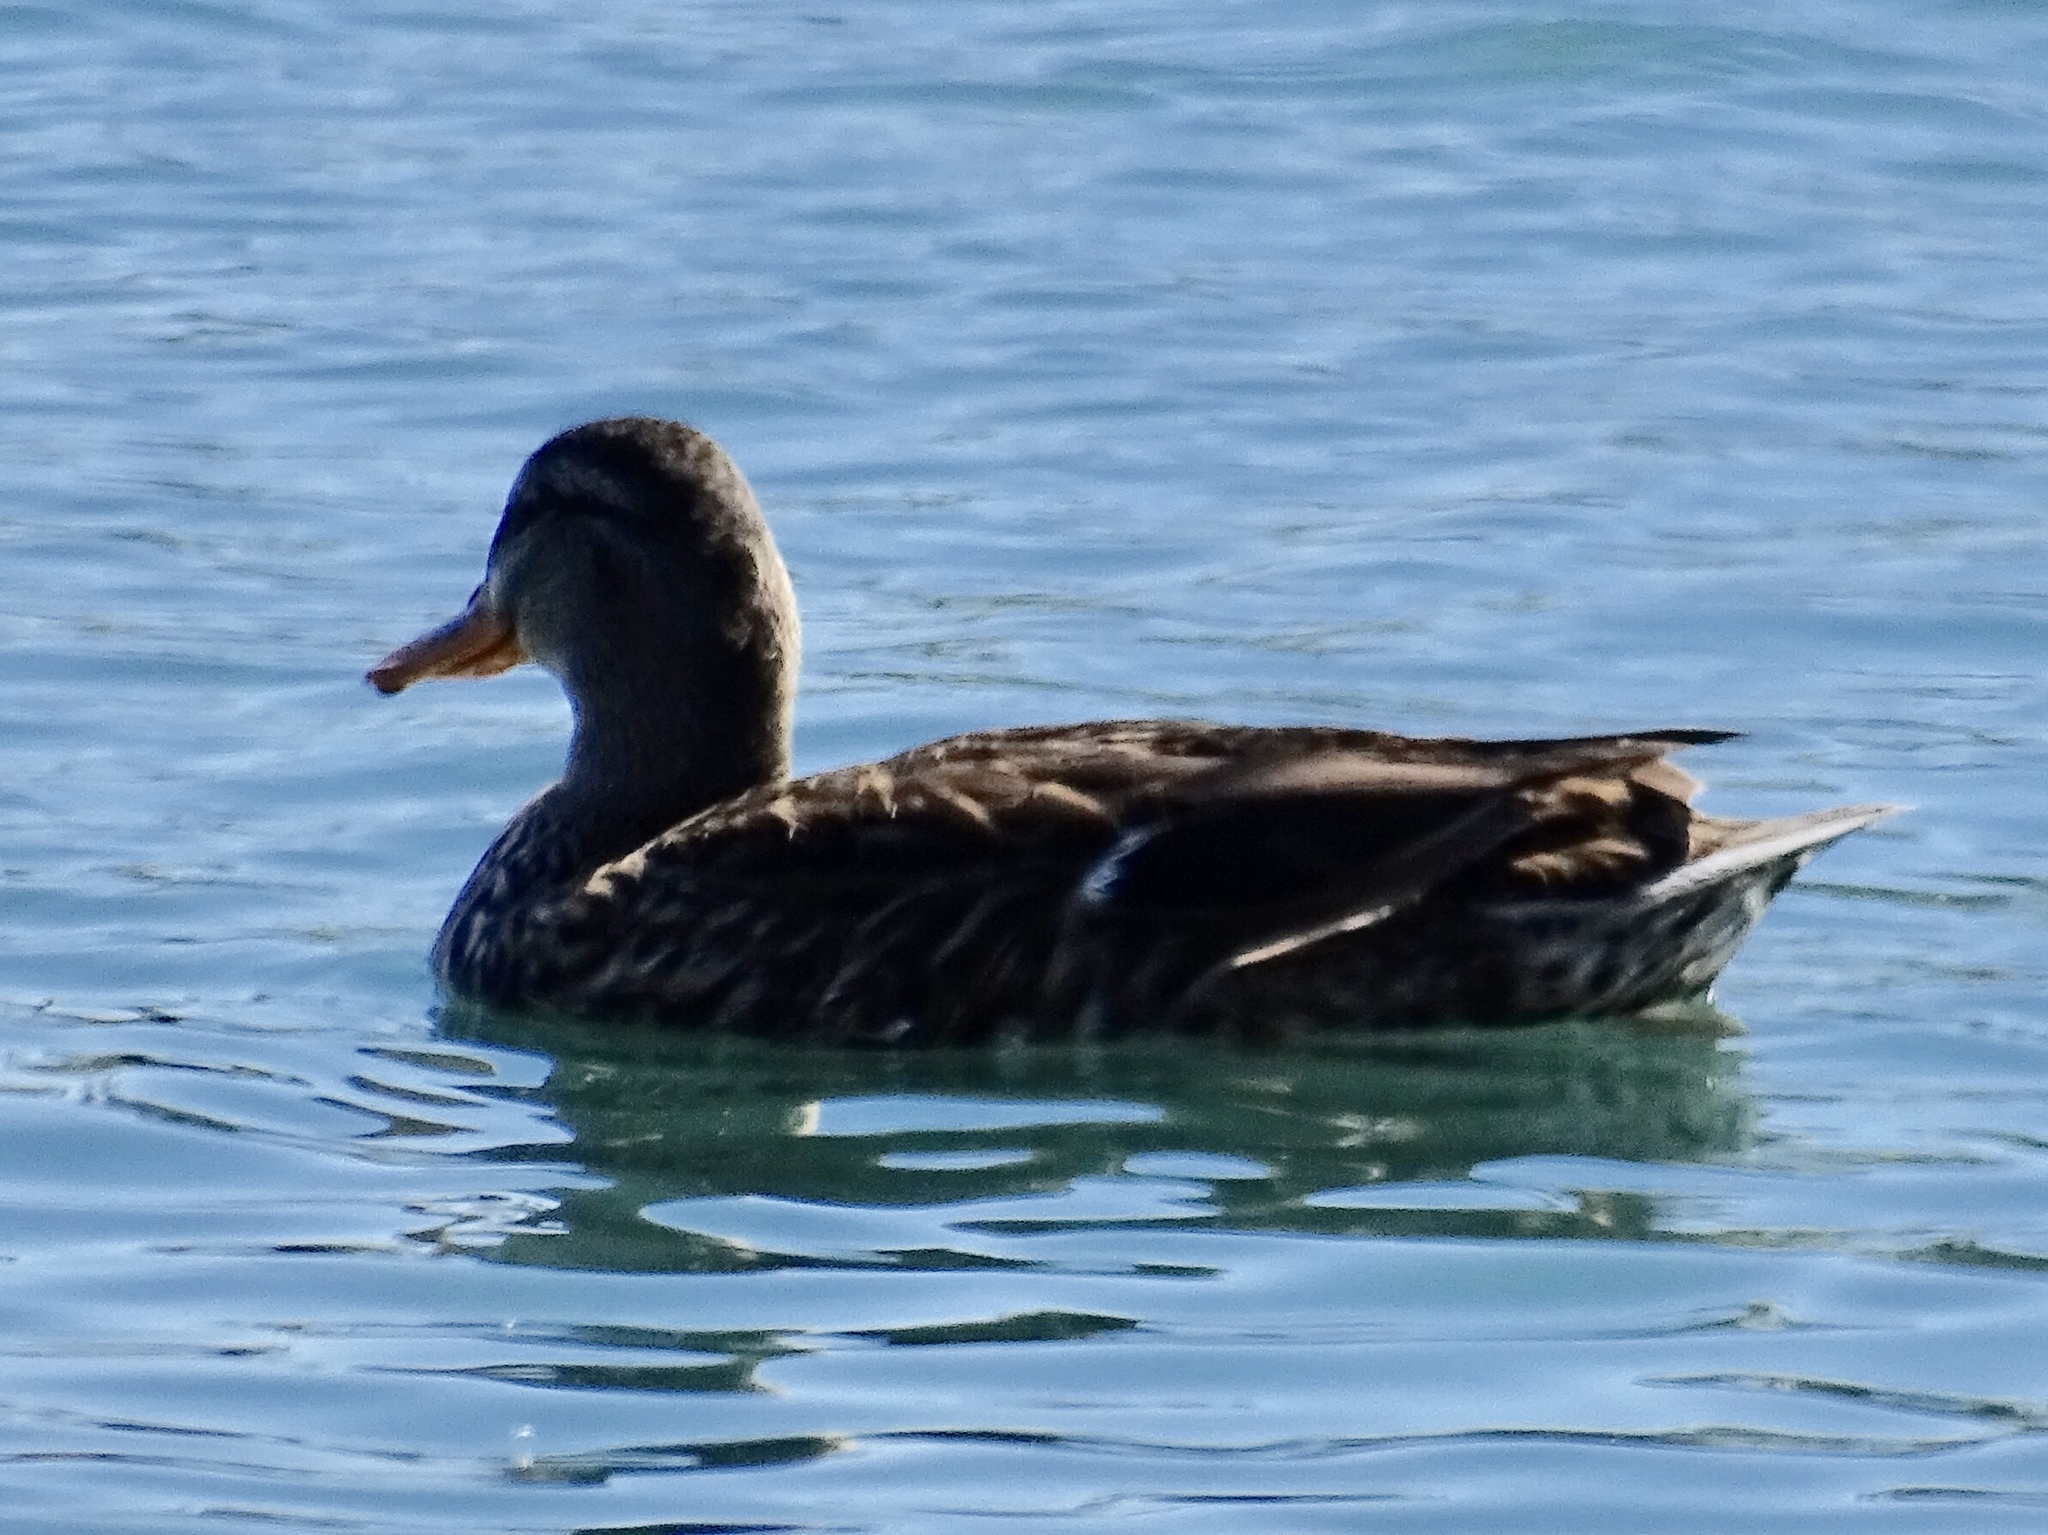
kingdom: Animalia
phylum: Chordata
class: Aves
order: Anseriformes
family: Anatidae
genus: Anas
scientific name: Anas platyrhynchos
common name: Mallard
